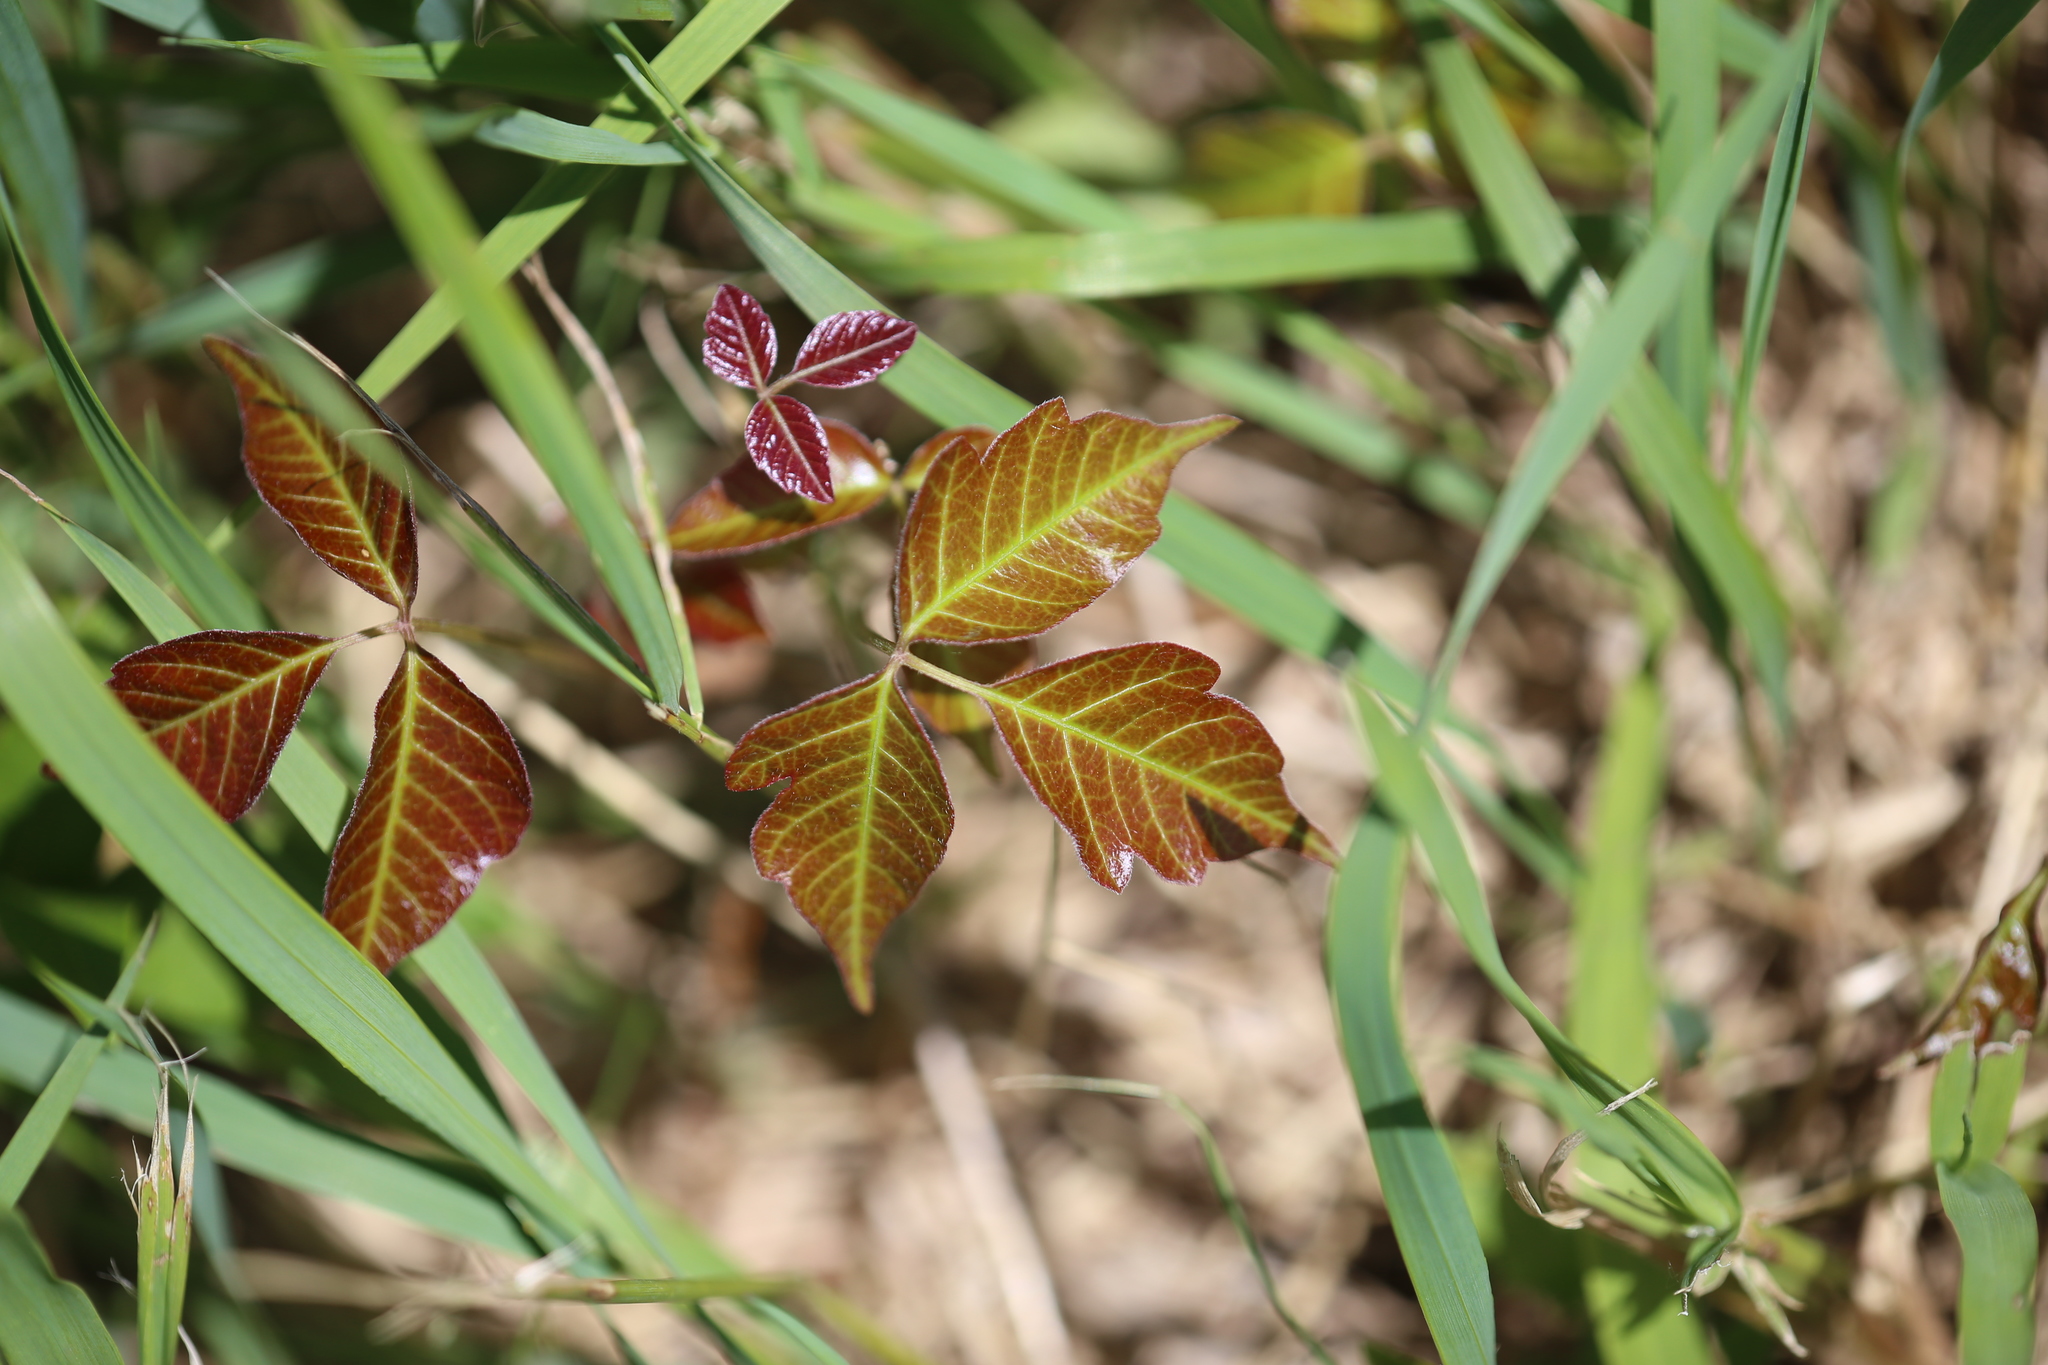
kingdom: Plantae
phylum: Tracheophyta
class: Magnoliopsida
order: Sapindales
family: Anacardiaceae
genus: Toxicodendron
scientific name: Toxicodendron radicans
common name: Poison ivy
